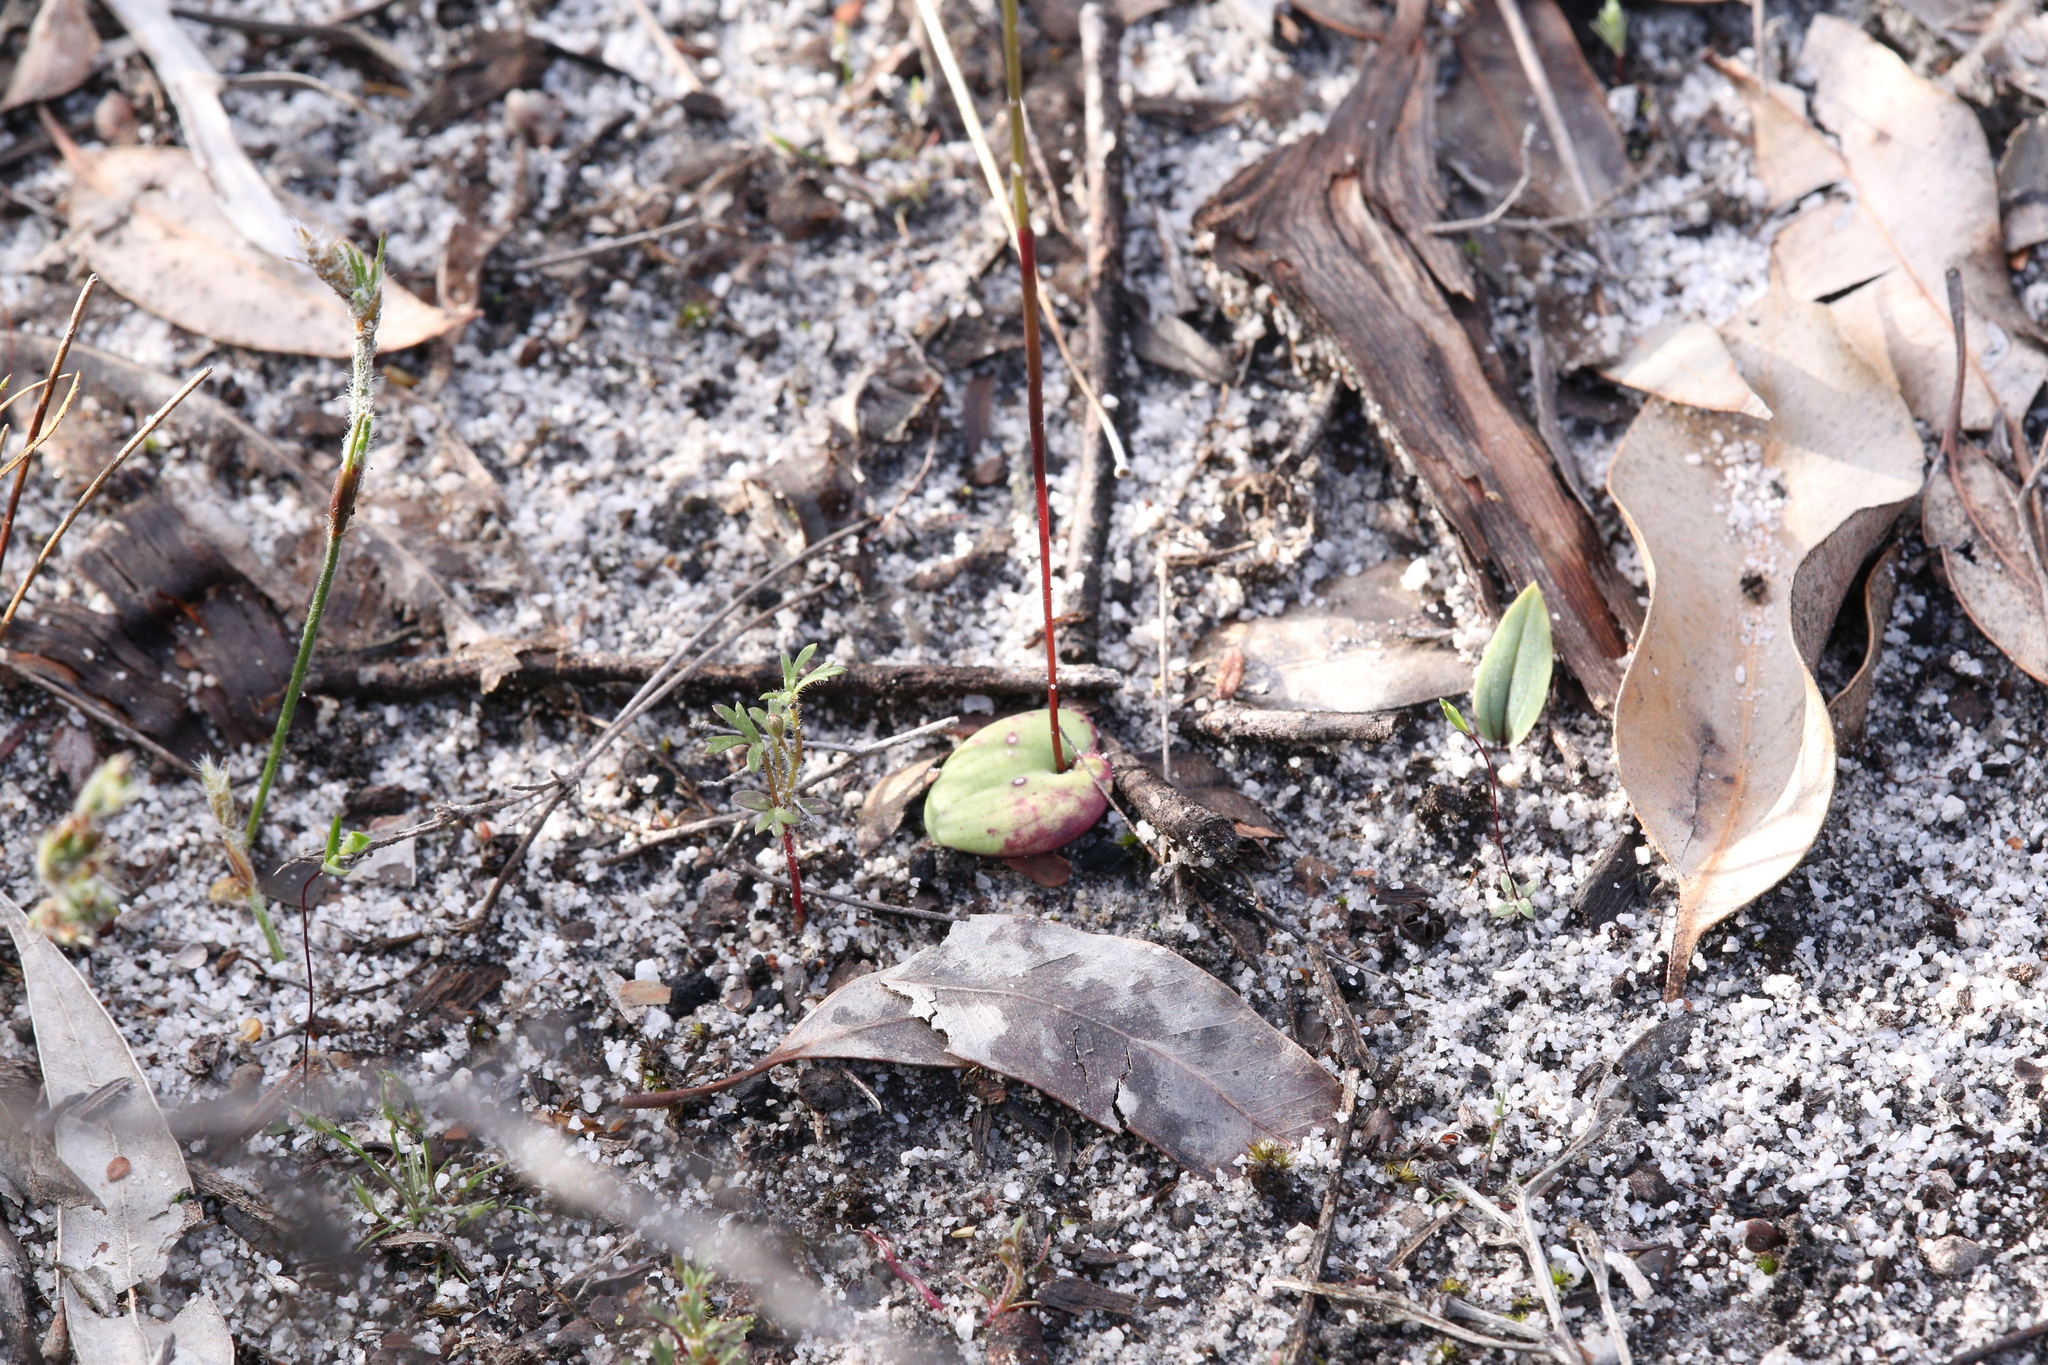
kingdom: Plantae
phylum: Tracheophyta
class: Liliopsida
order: Asparagales
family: Orchidaceae
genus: Drakaea
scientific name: Drakaea gracilis
